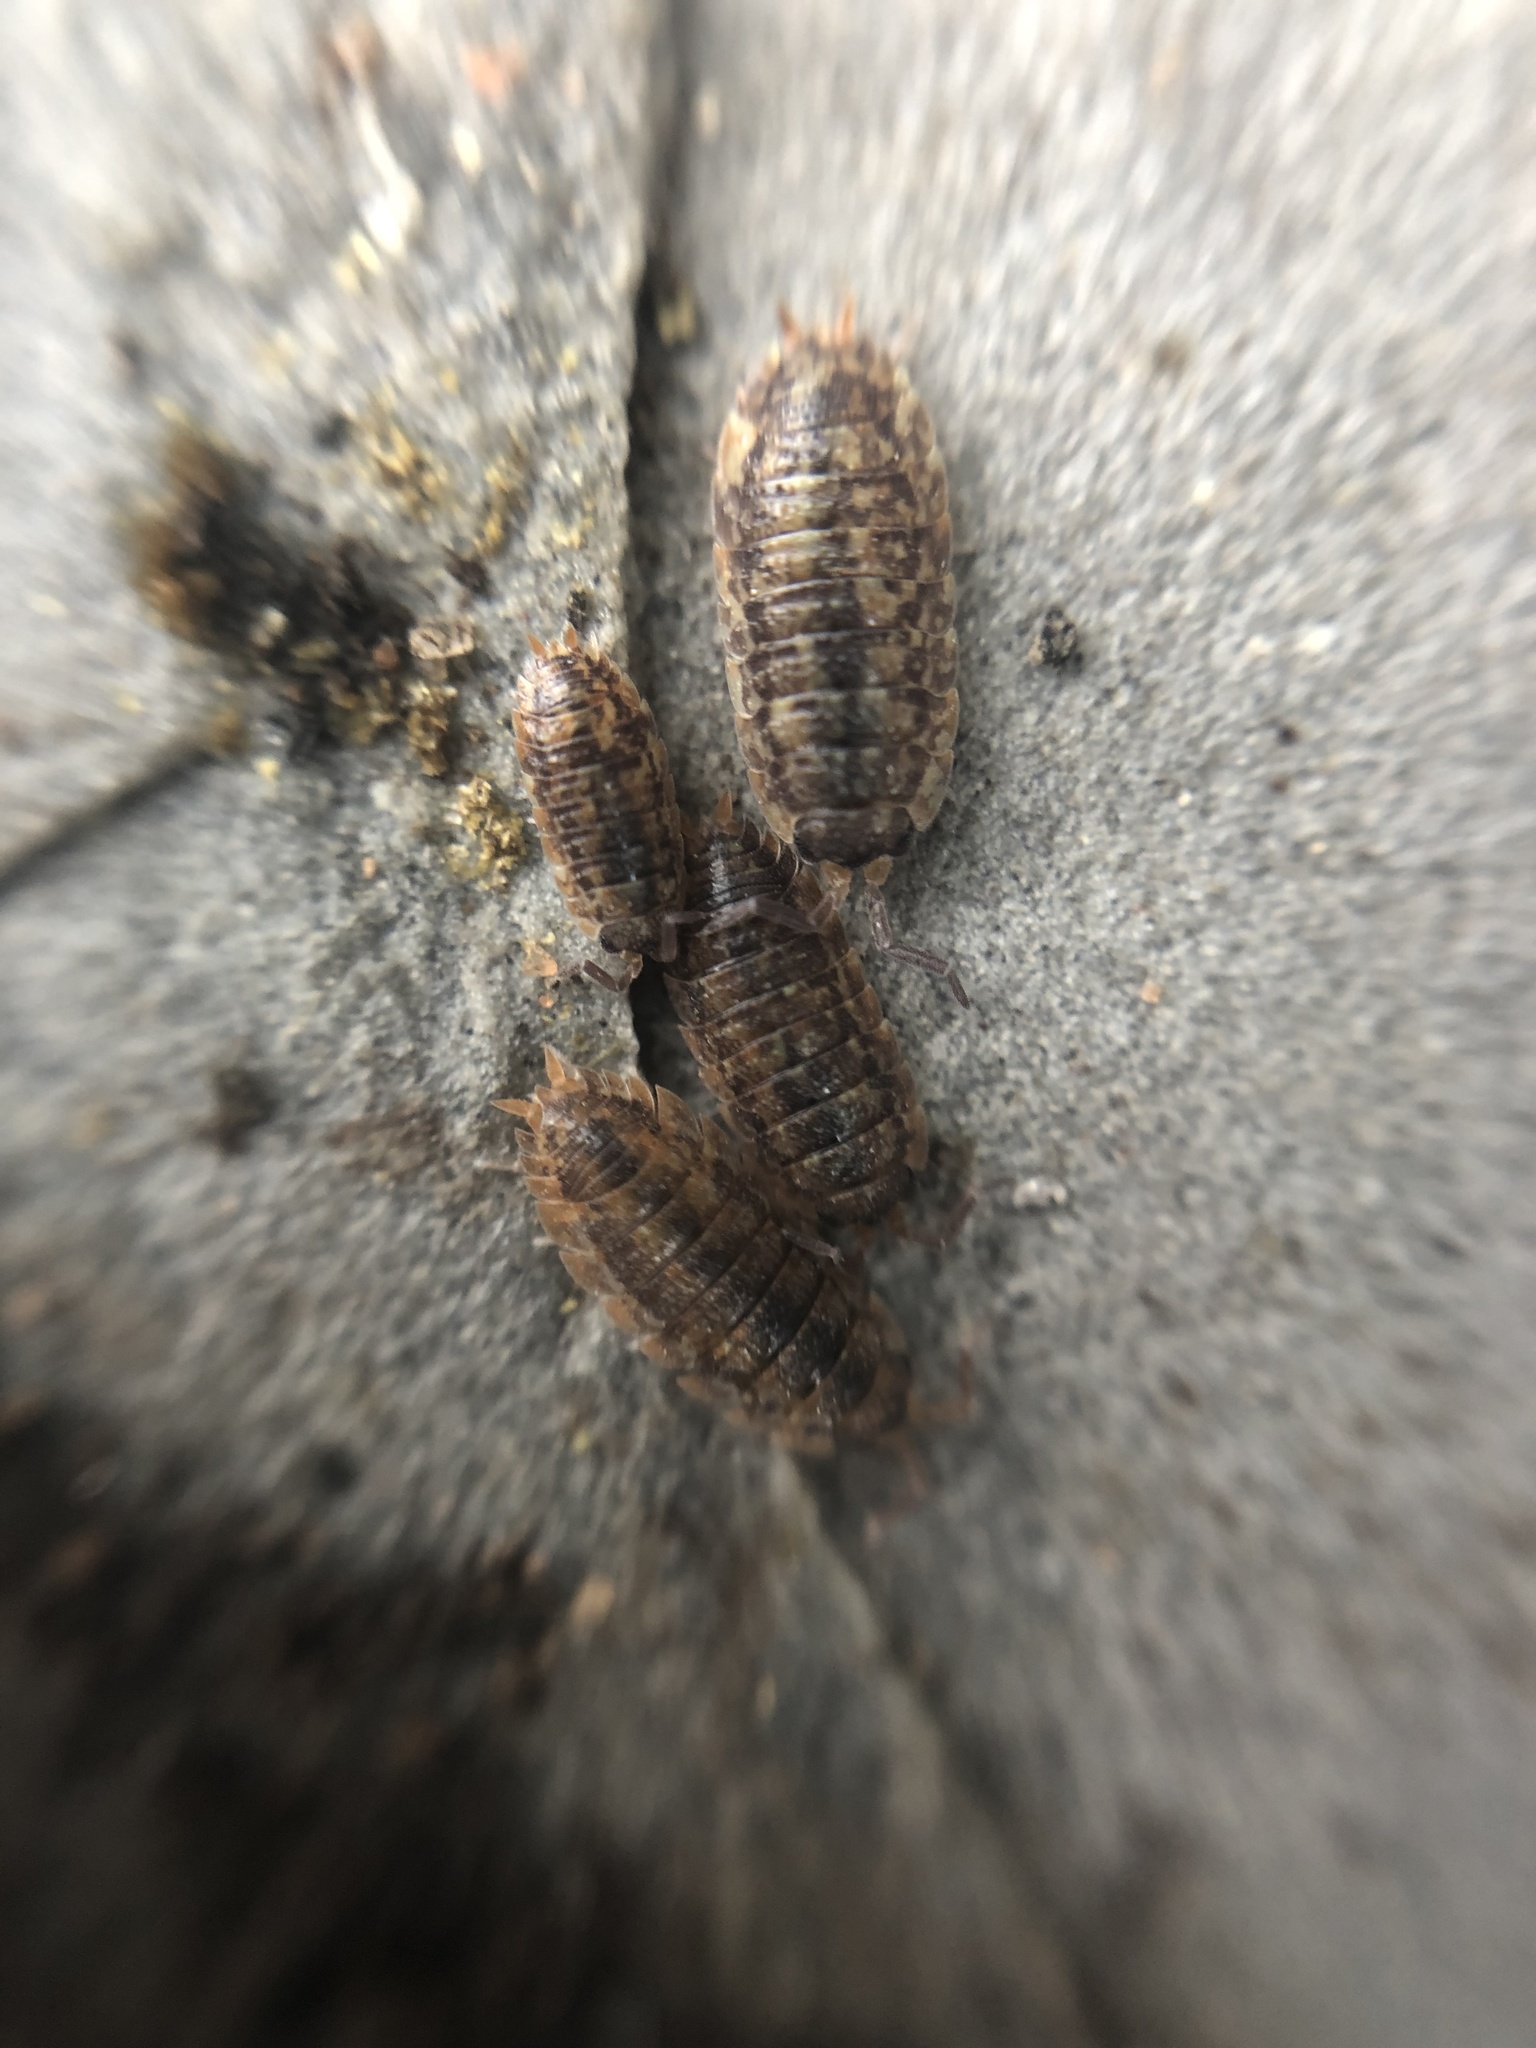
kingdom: Animalia
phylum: Arthropoda
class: Malacostraca
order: Isopoda
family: Porcellionidae
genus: Porcellio
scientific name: Porcellio scaber
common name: Common rough woodlouse
